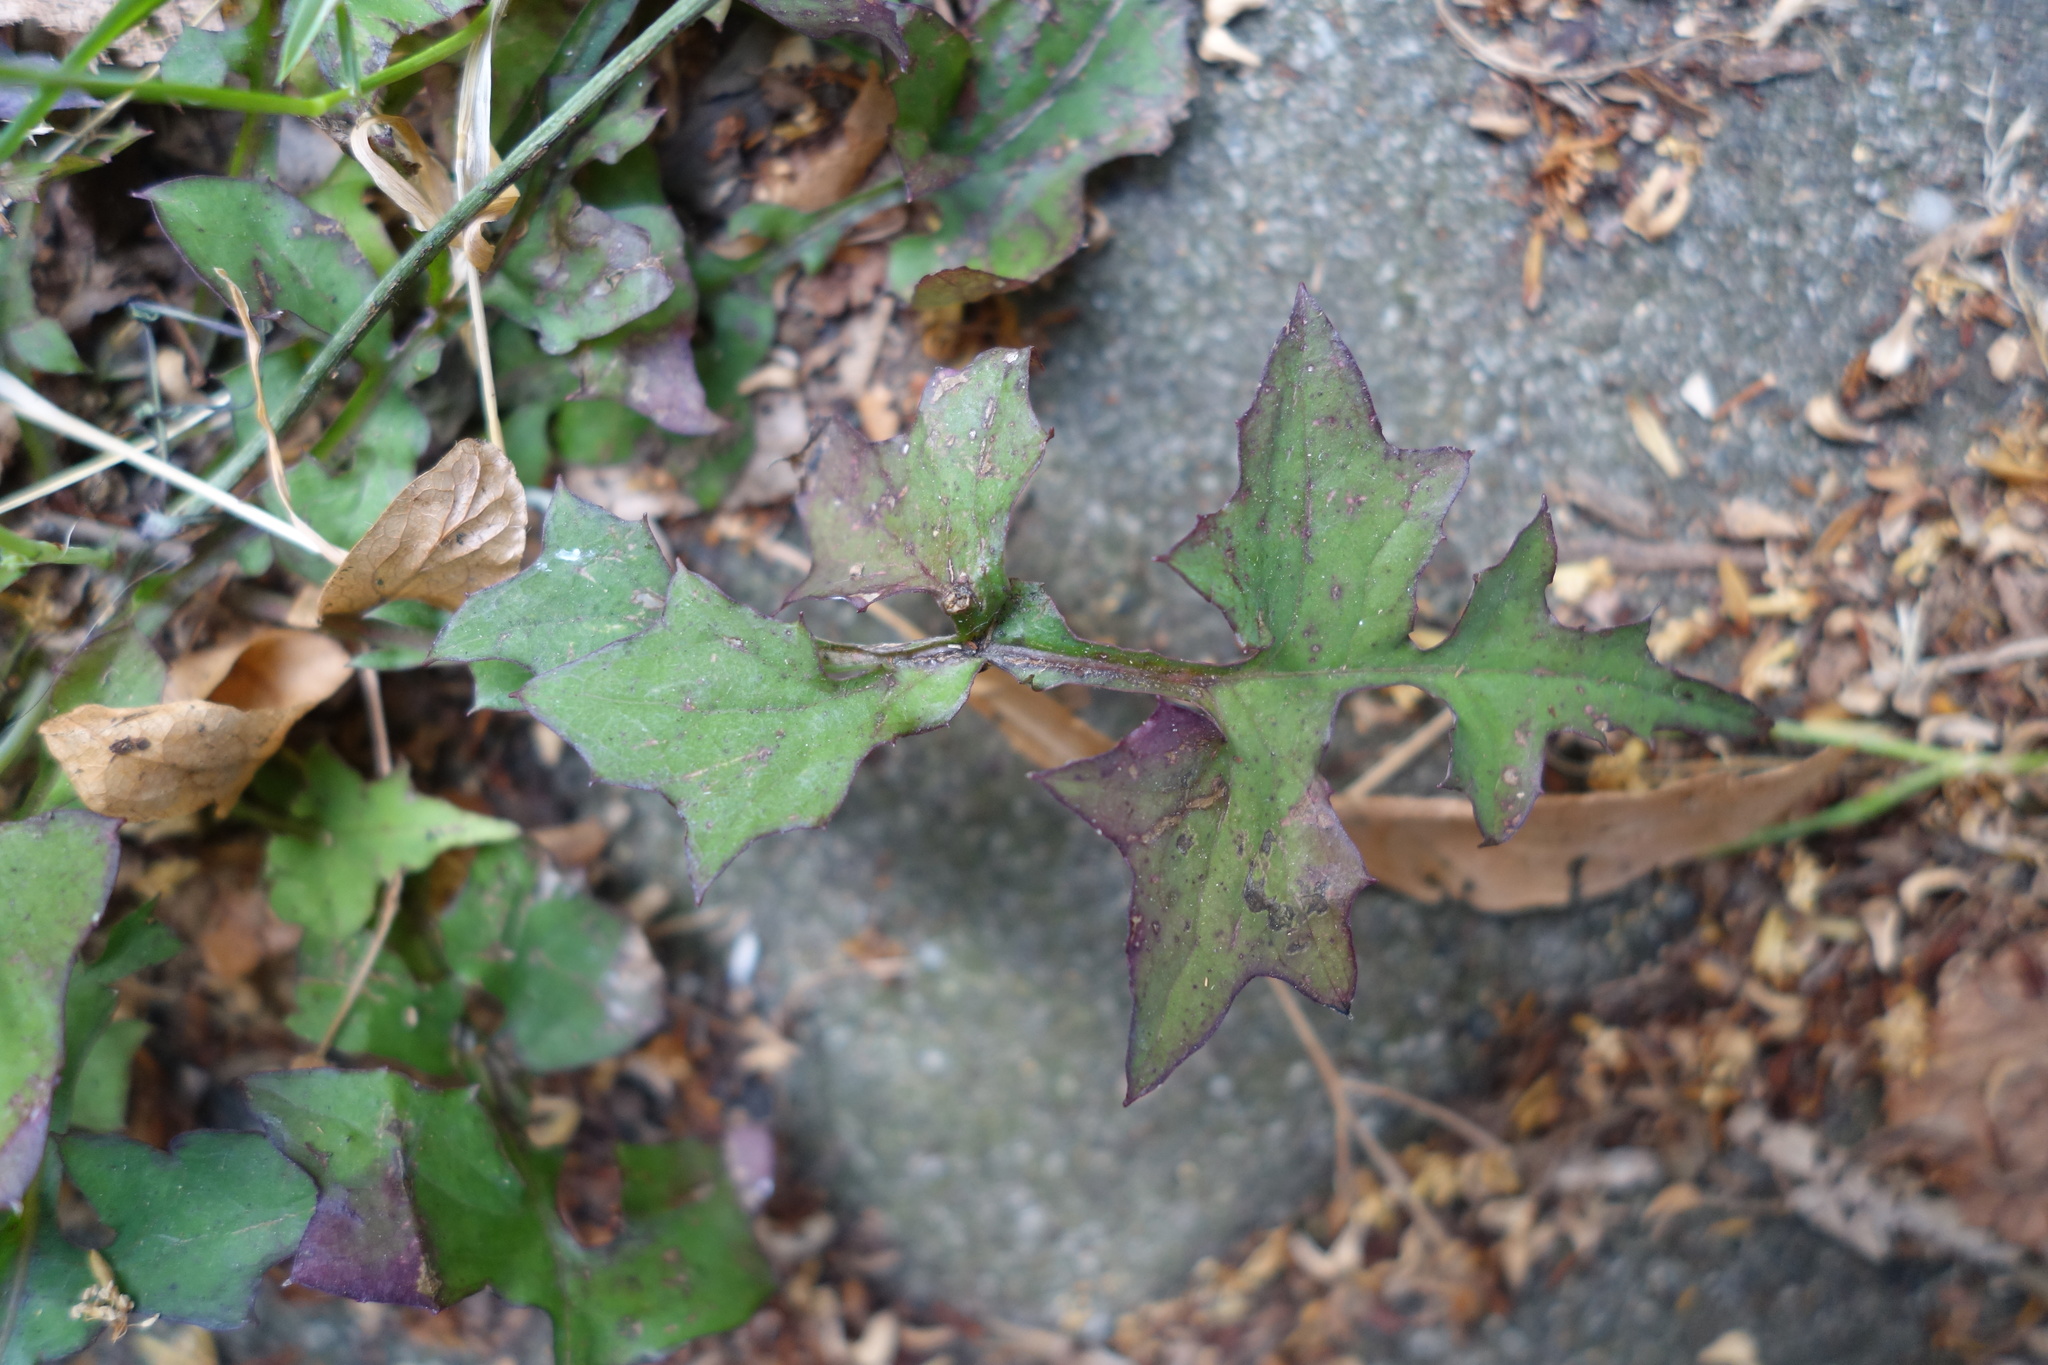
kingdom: Plantae
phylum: Tracheophyta
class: Magnoliopsida
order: Asterales
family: Asteraceae
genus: Mycelis
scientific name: Mycelis muralis
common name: Wall lettuce
